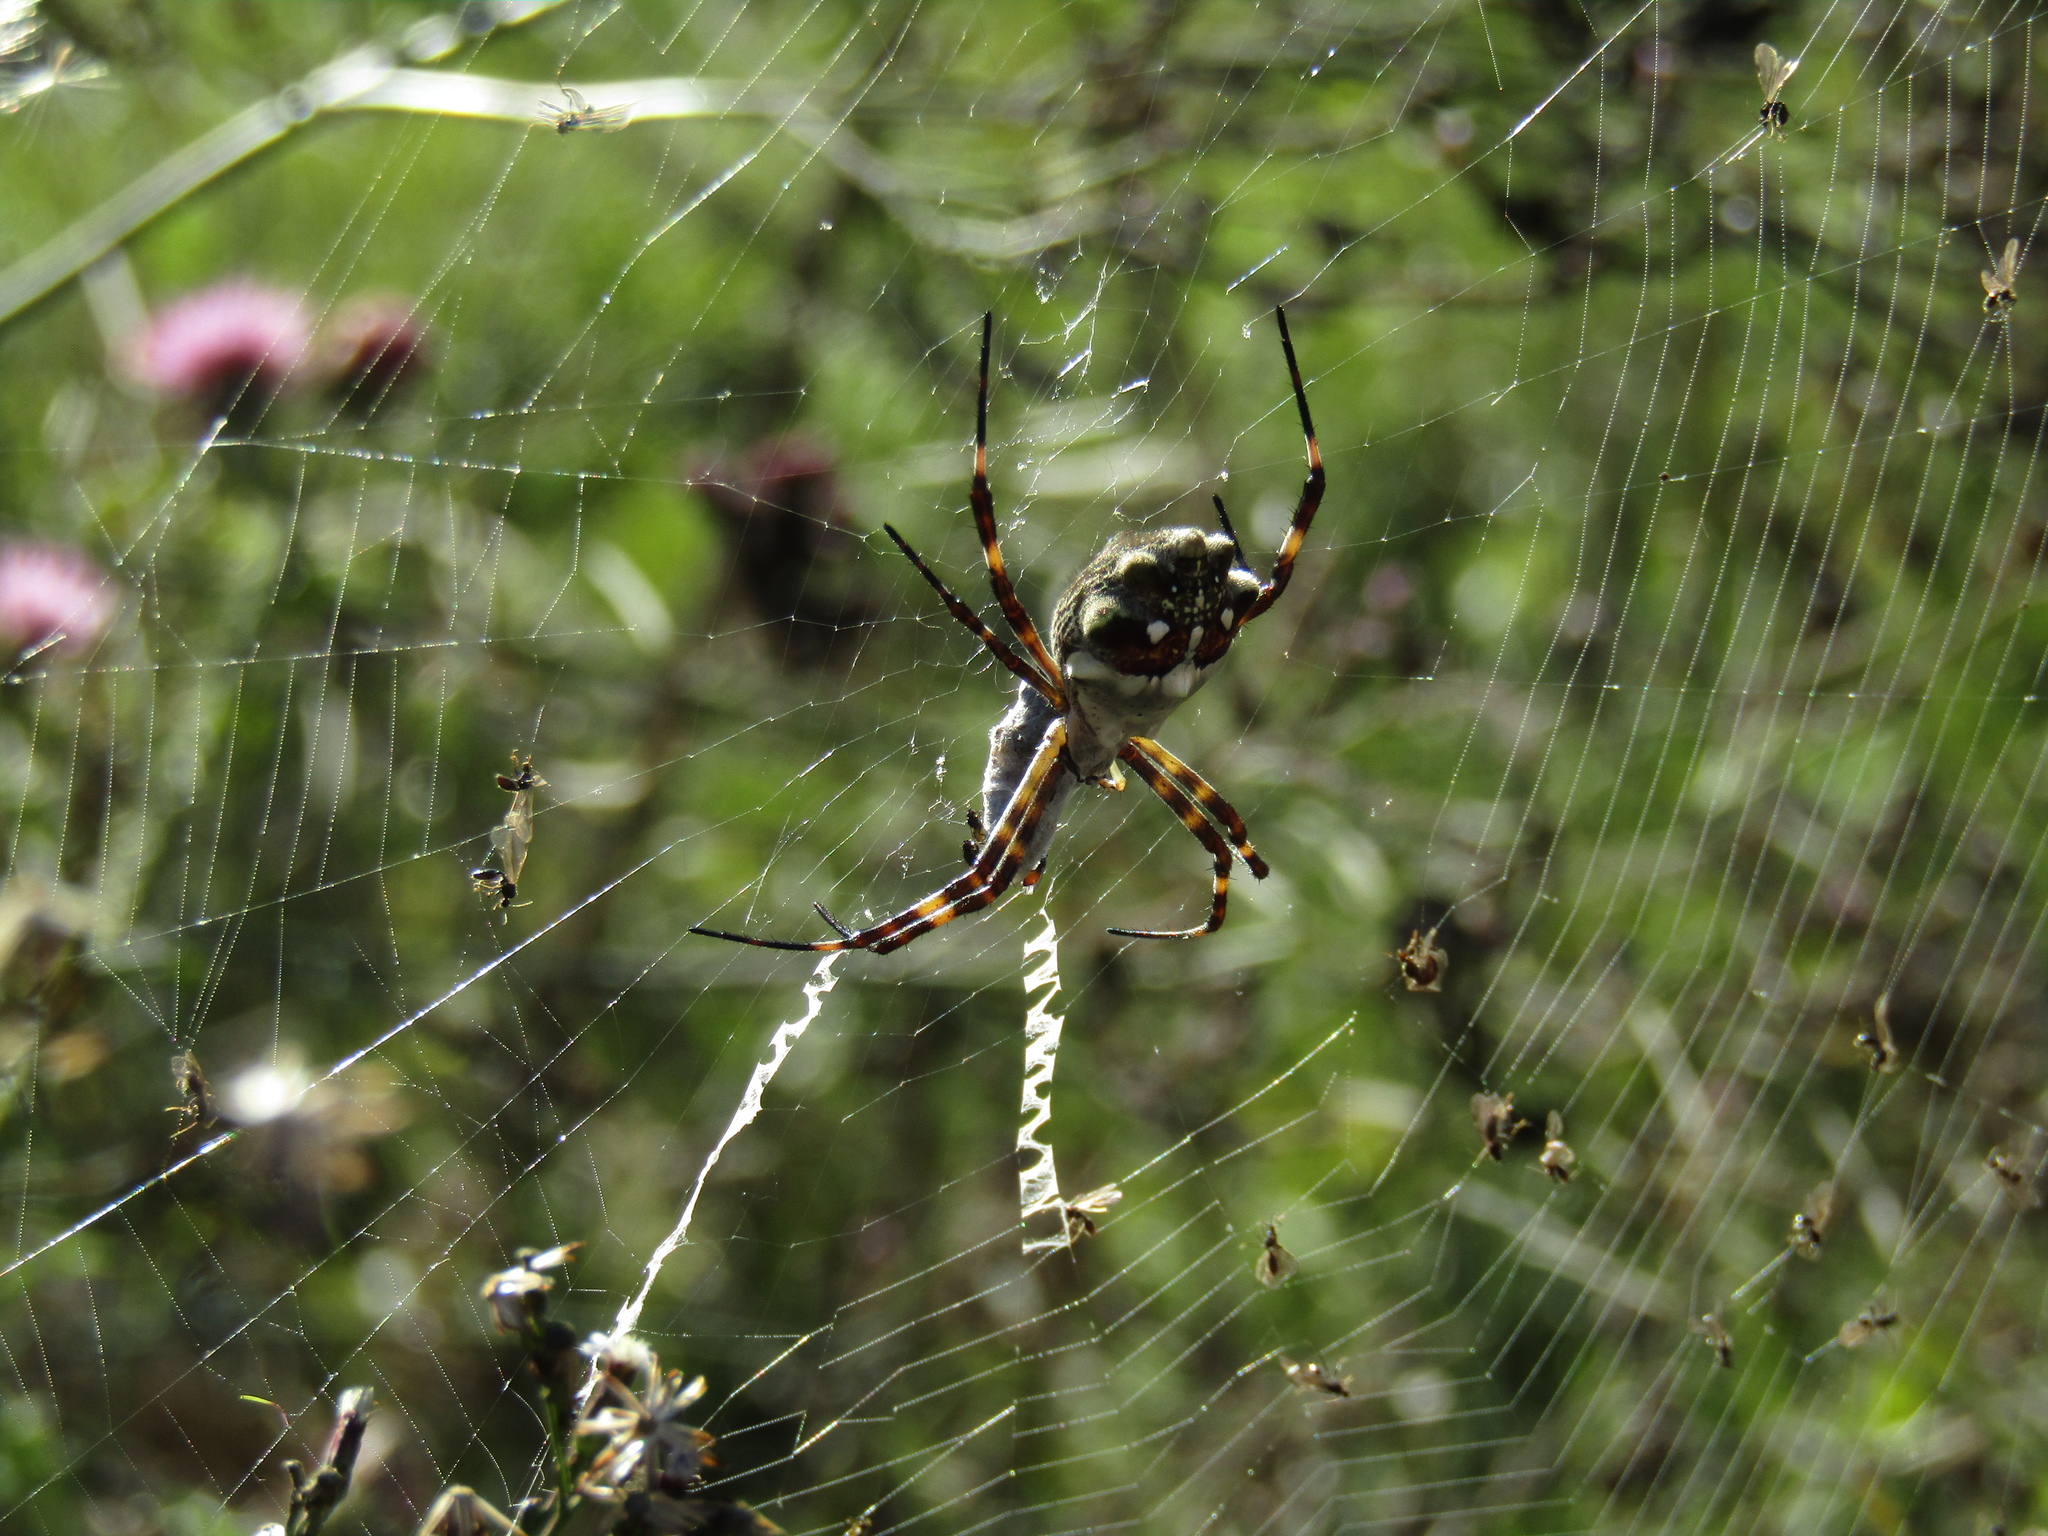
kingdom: Animalia
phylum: Arthropoda
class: Arachnida
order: Araneae
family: Araneidae
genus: Argiope
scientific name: Argiope argentata
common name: Orb weavers
